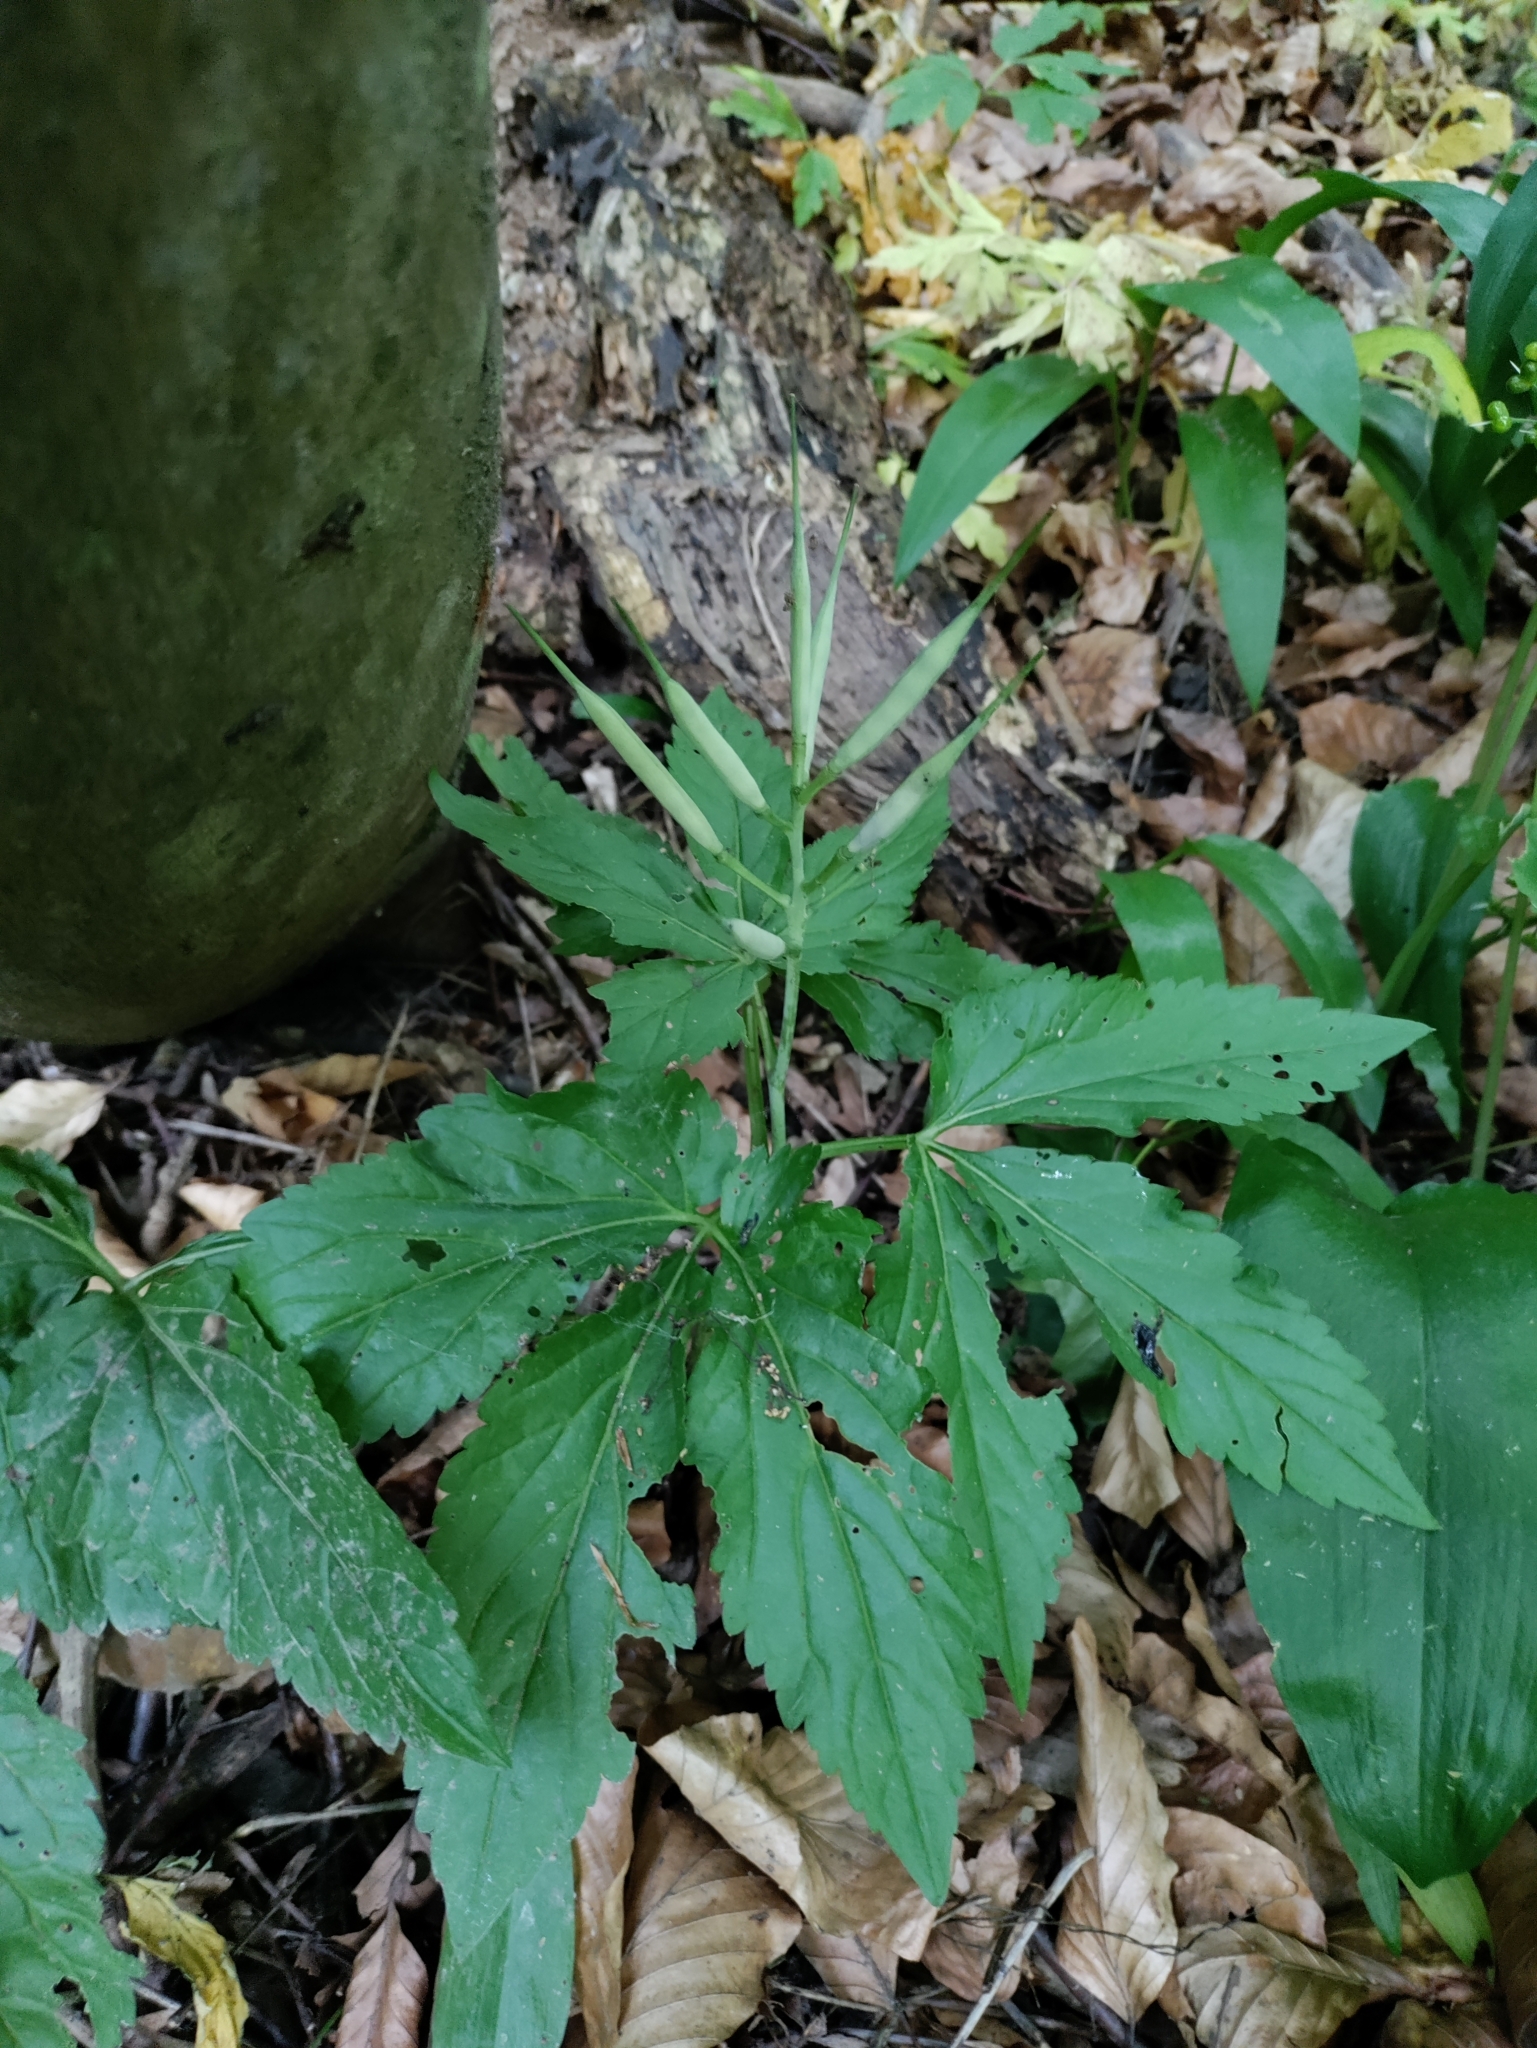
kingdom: Plantae
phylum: Tracheophyta
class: Magnoliopsida
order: Brassicales
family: Brassicaceae
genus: Cardamine
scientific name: Cardamine enneaphyllos
